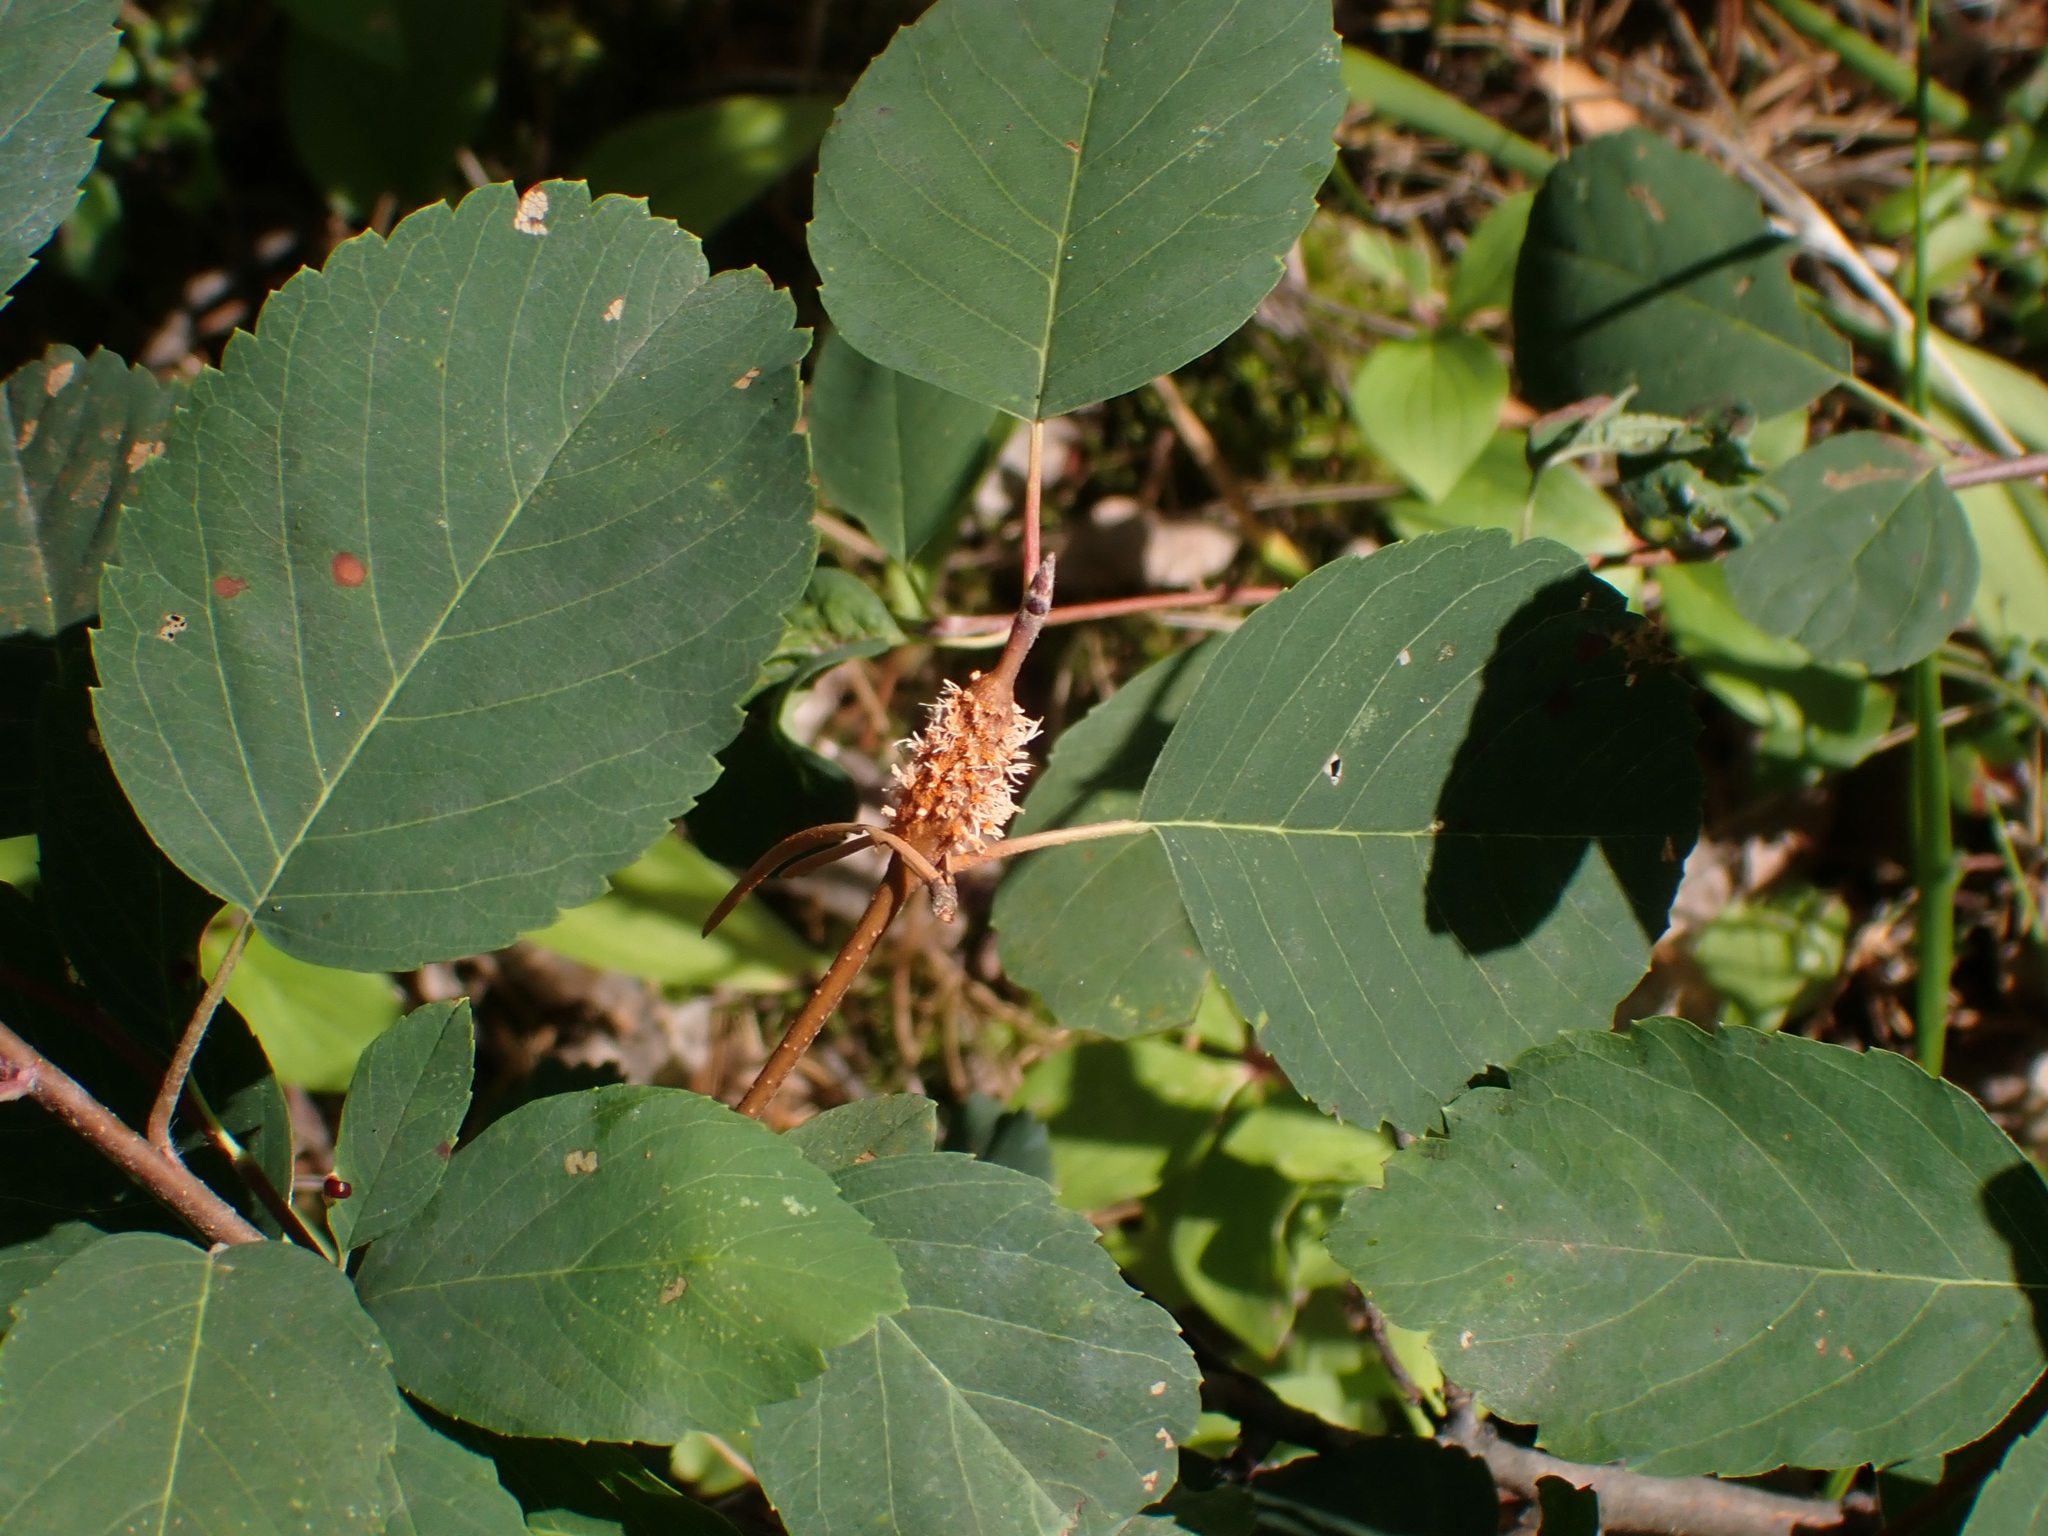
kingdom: Fungi
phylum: Basidiomycota
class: Pucciniomycetes
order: Pucciniales
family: Gymnosporangiaceae
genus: Gymnosporangium
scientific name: Gymnosporangium nelsonii
